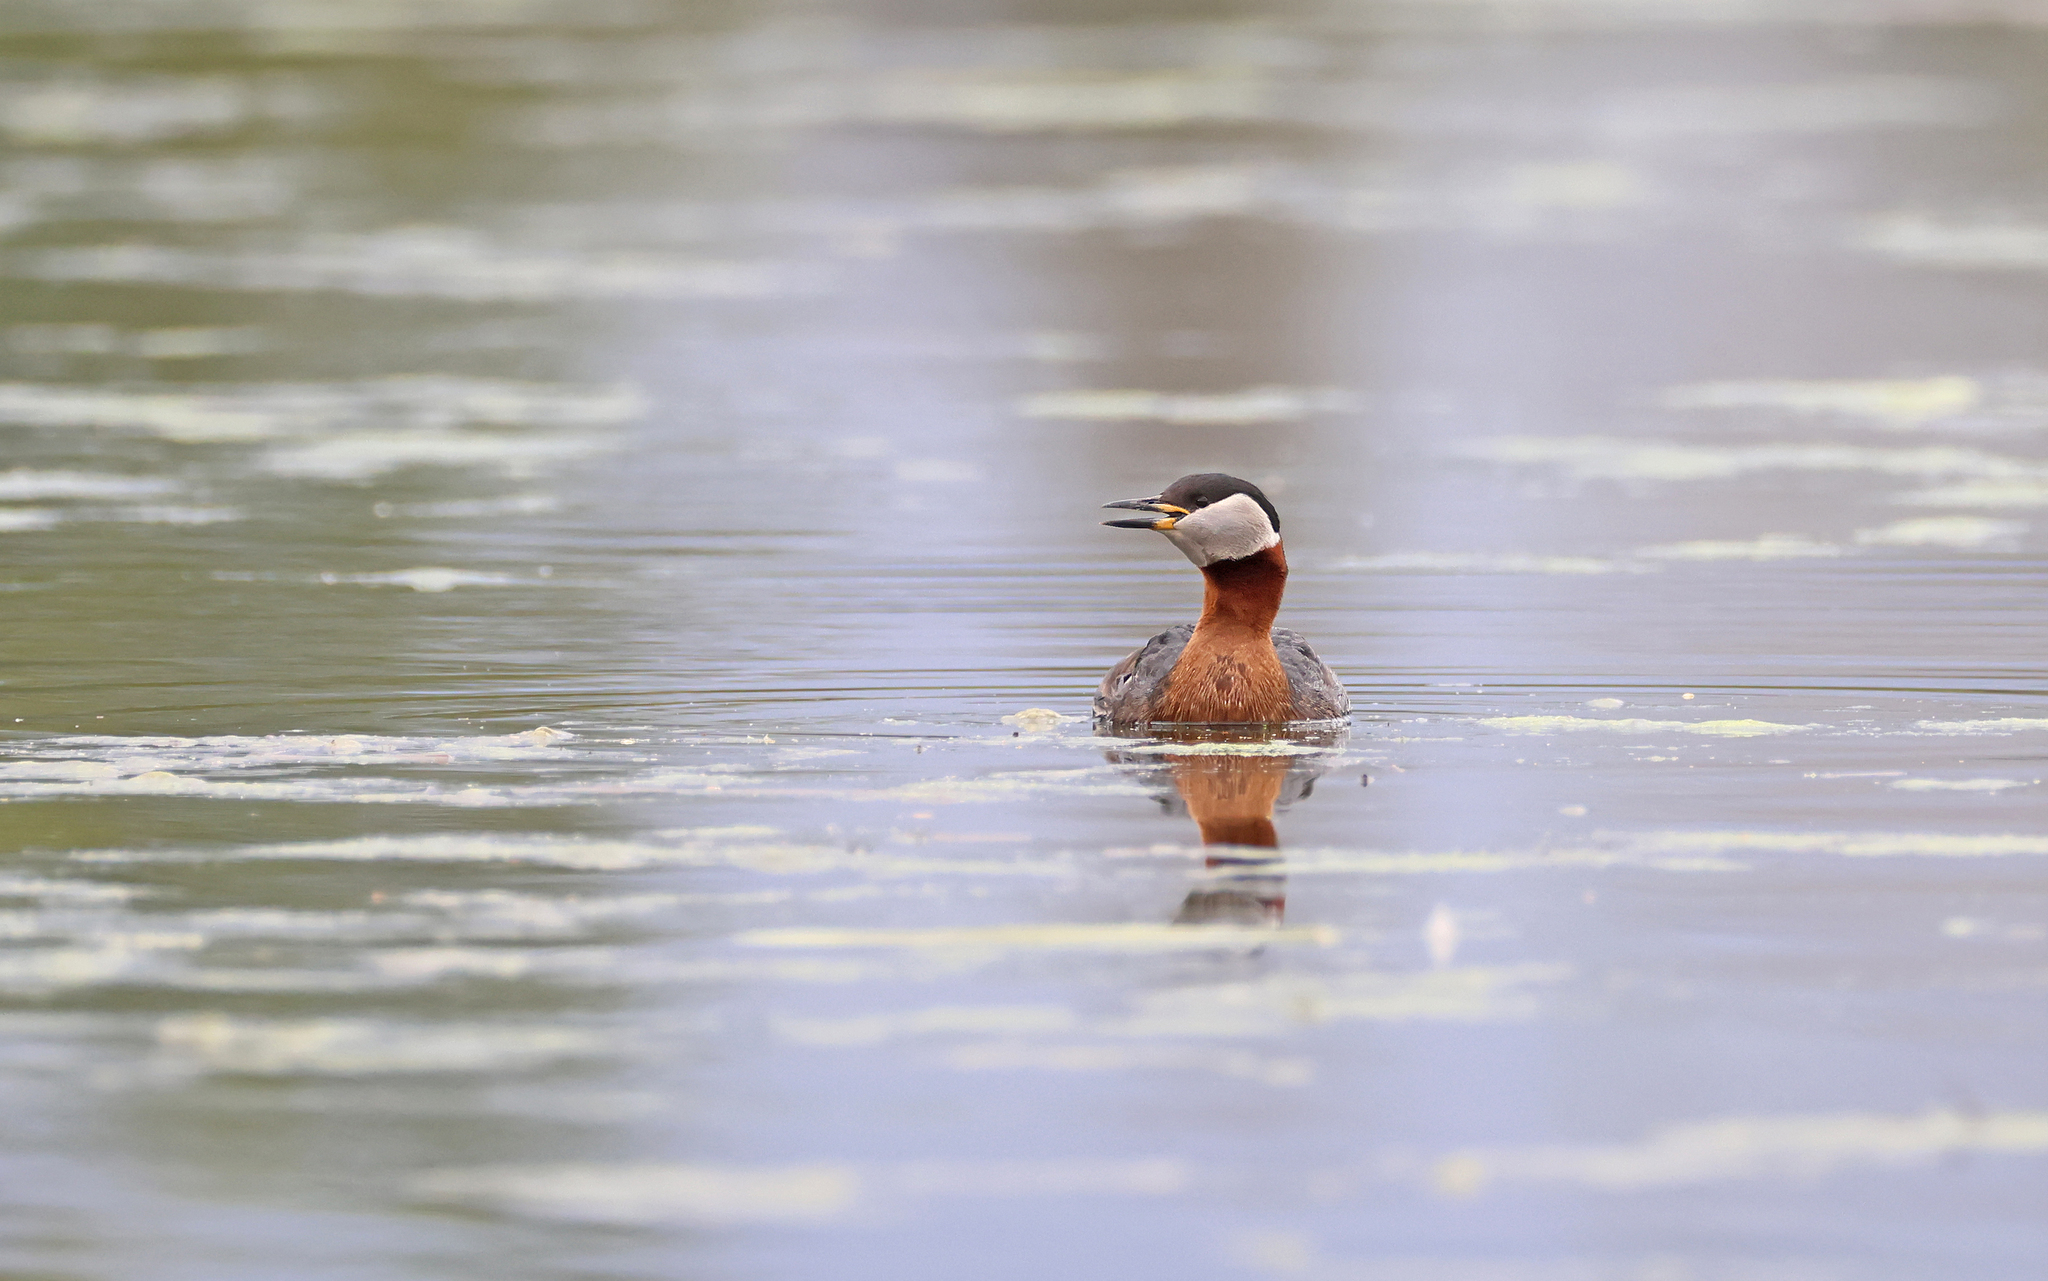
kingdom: Animalia
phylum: Chordata
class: Aves
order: Podicipediformes
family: Podicipedidae
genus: Podiceps
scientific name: Podiceps grisegena
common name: Red-necked grebe
